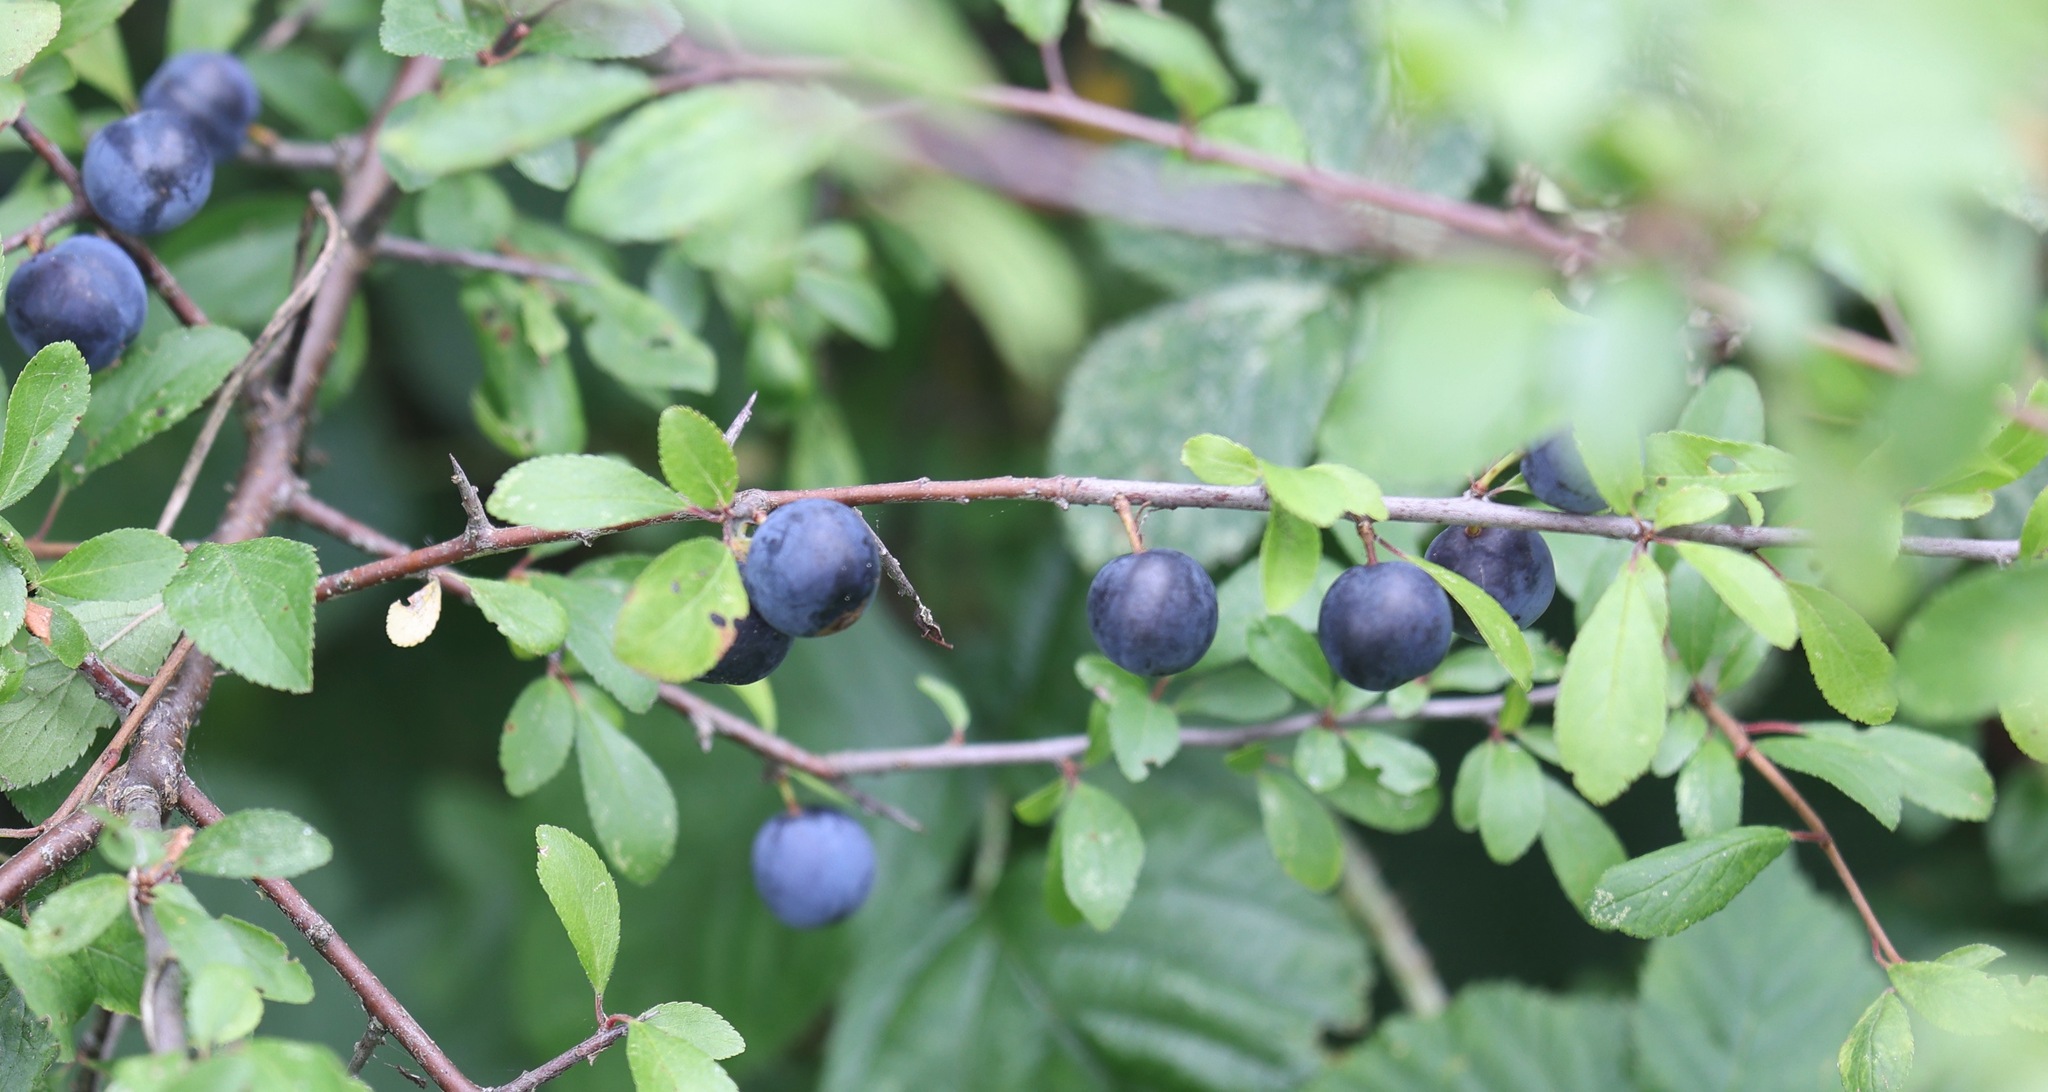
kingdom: Plantae
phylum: Tracheophyta
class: Magnoliopsida
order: Rosales
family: Rosaceae
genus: Prunus
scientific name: Prunus spinosa
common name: Blackthorn
